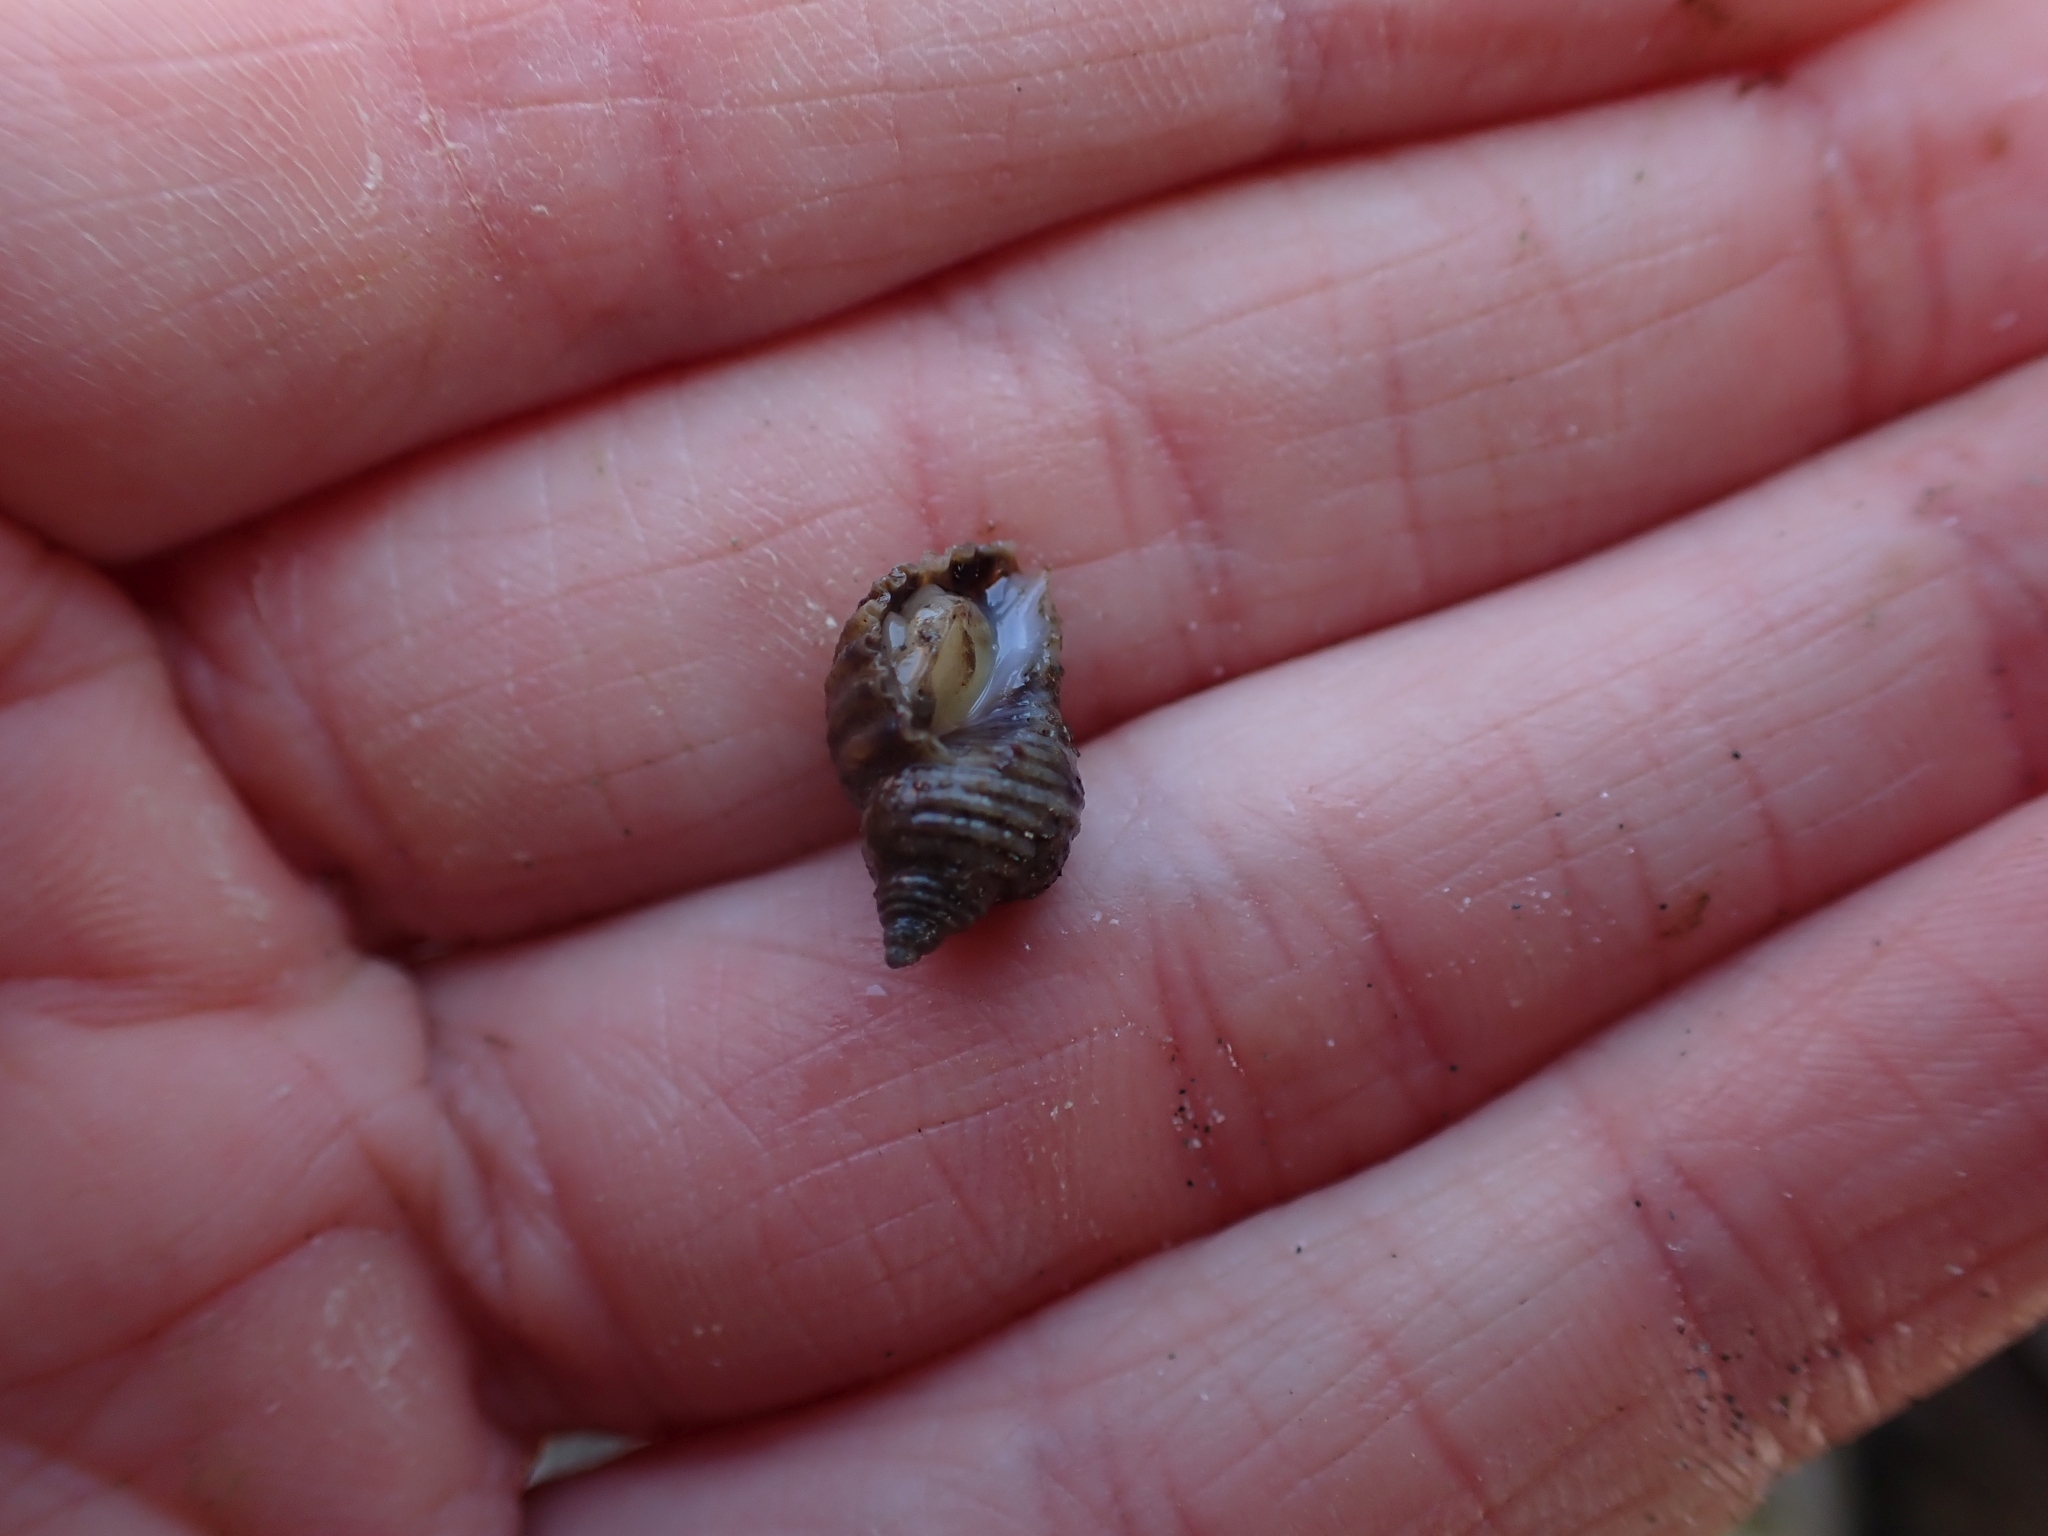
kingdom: Animalia
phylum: Mollusca
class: Gastropoda
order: Neogastropoda
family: Muricidae
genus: Nucella
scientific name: Nucella canaliculata
